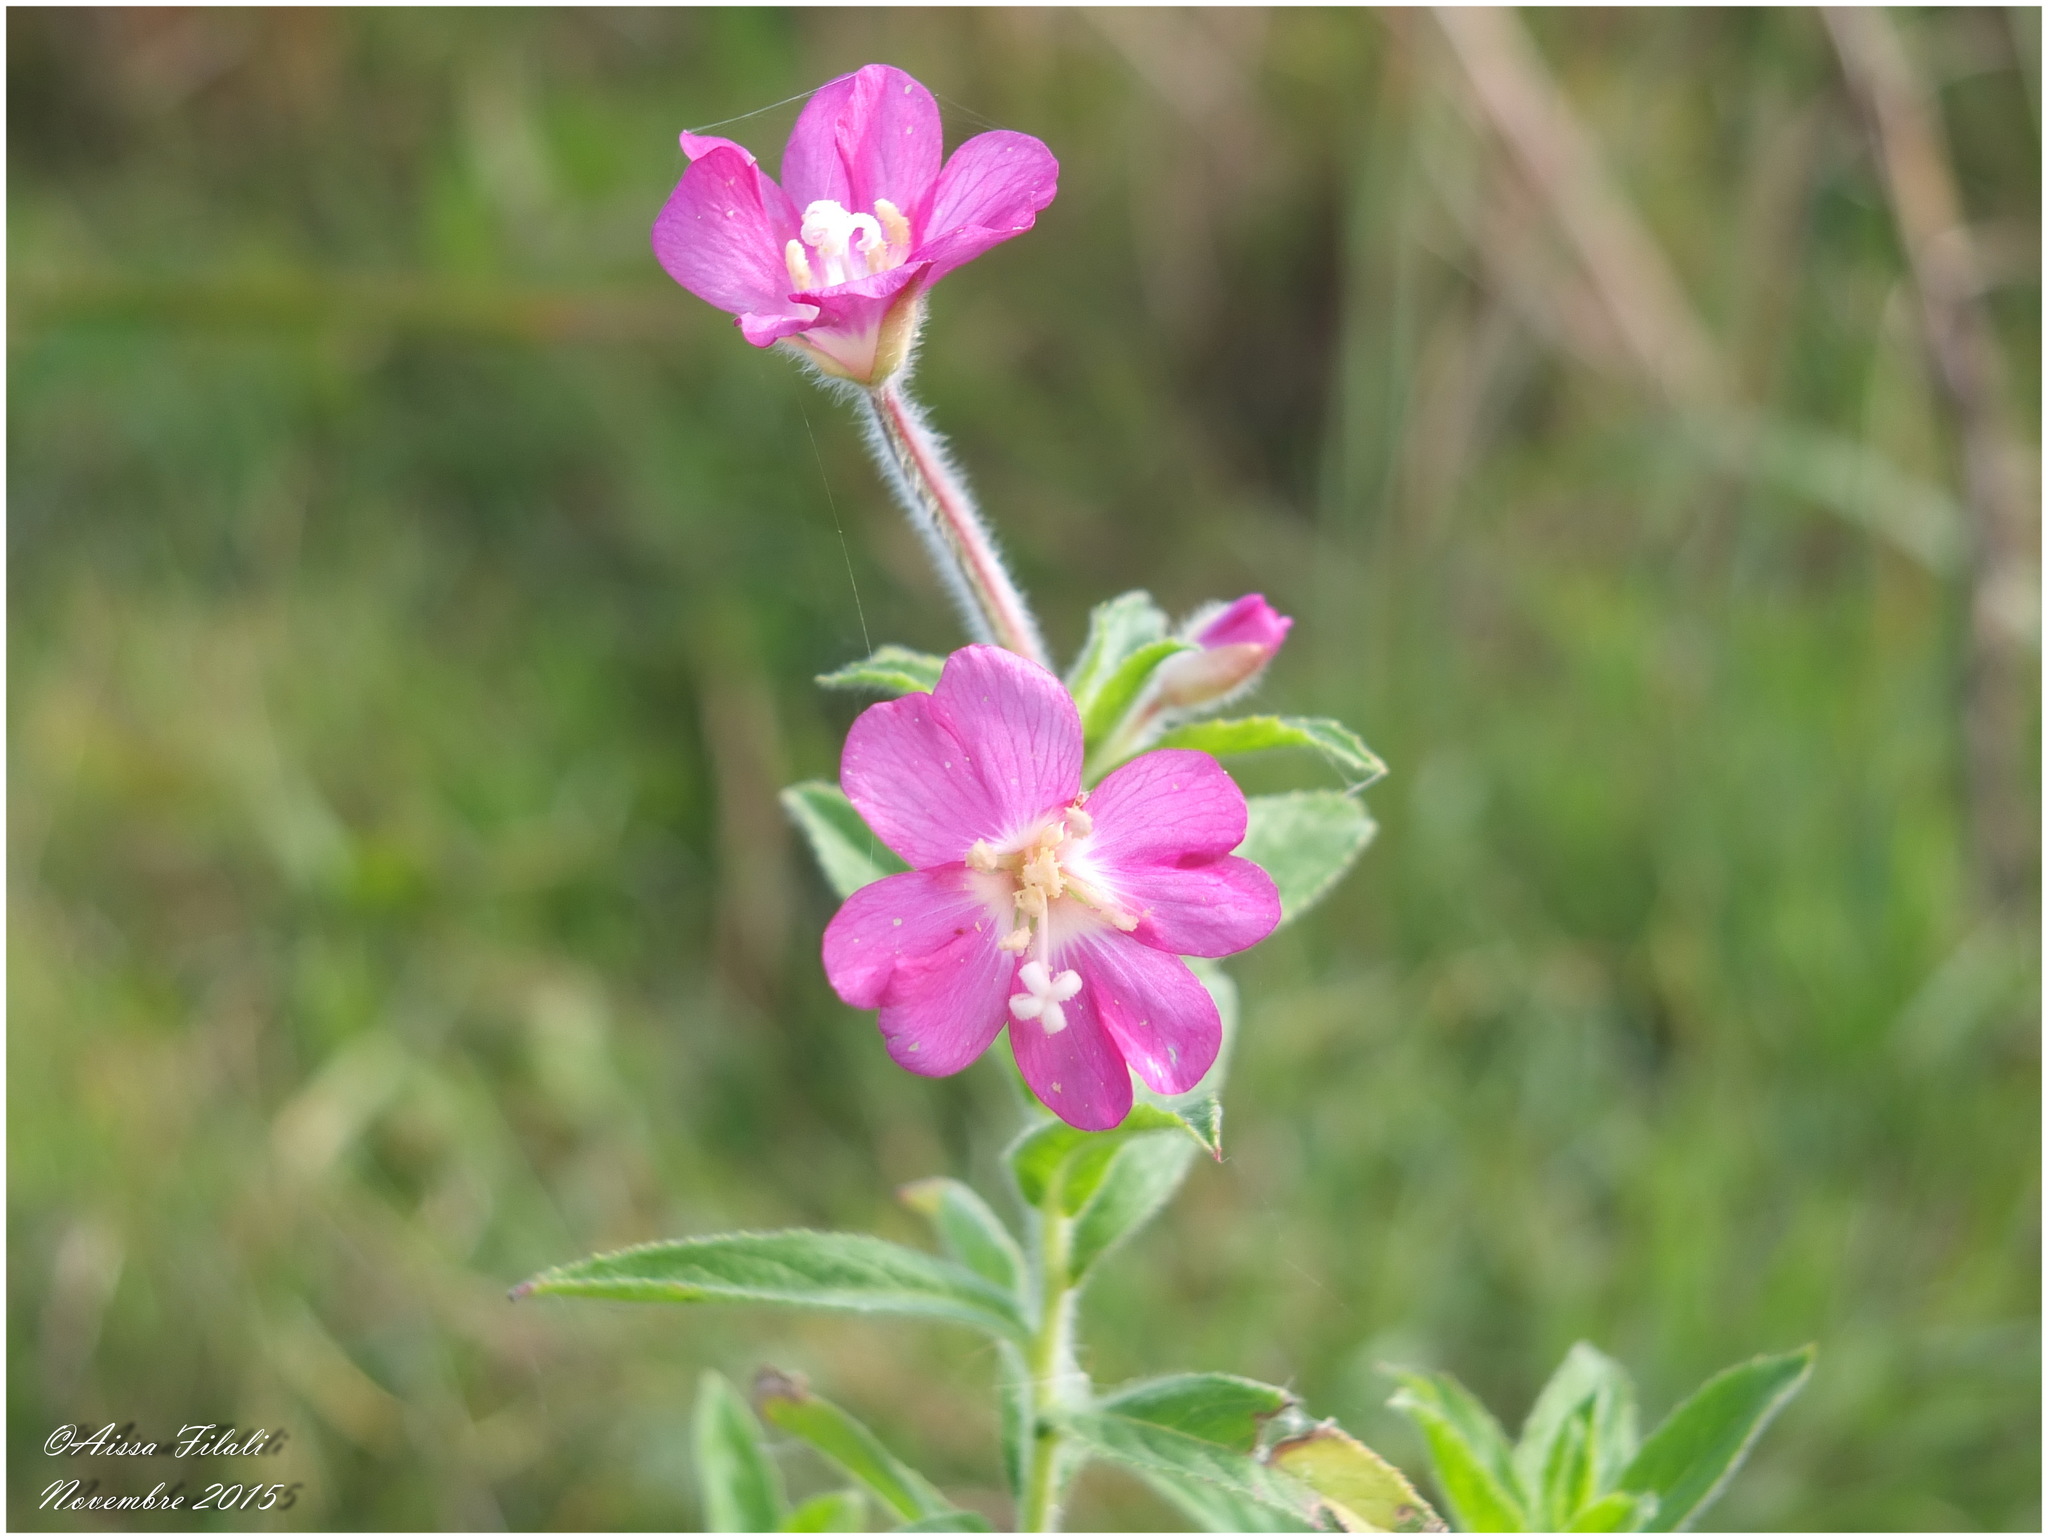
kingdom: Plantae
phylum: Tracheophyta
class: Magnoliopsida
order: Myrtales
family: Onagraceae
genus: Epilobium
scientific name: Epilobium hirsutum
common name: Great willowherb
